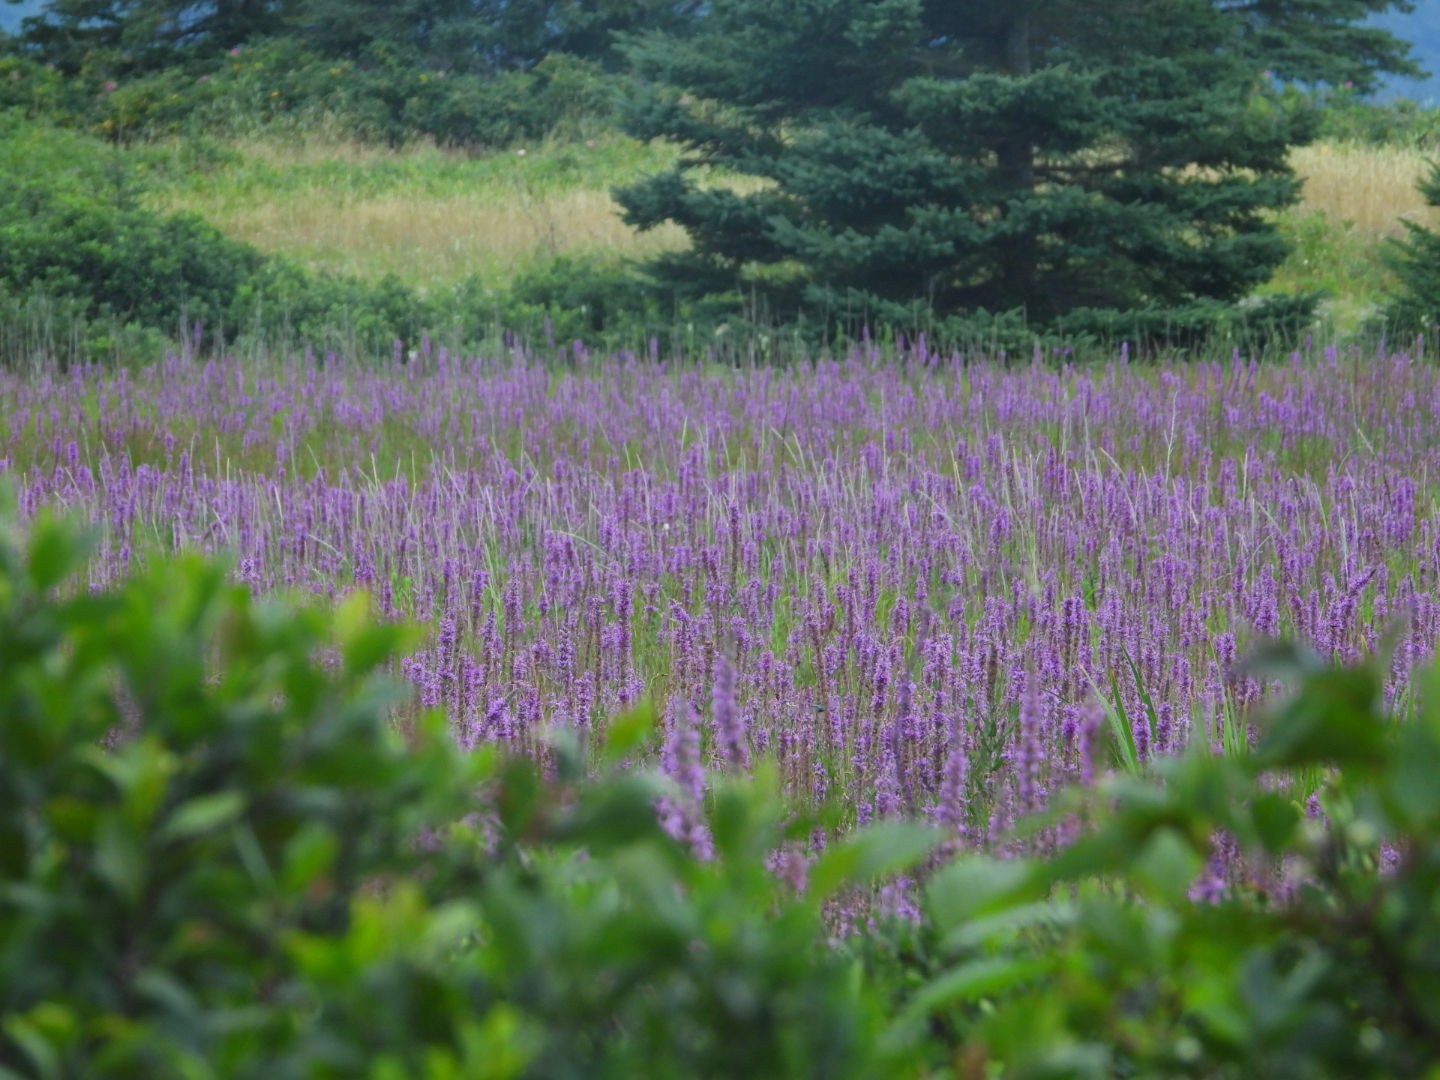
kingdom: Plantae
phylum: Tracheophyta
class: Magnoliopsida
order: Myrtales
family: Lythraceae
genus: Lythrum
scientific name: Lythrum salicaria
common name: Purple loosestrife
